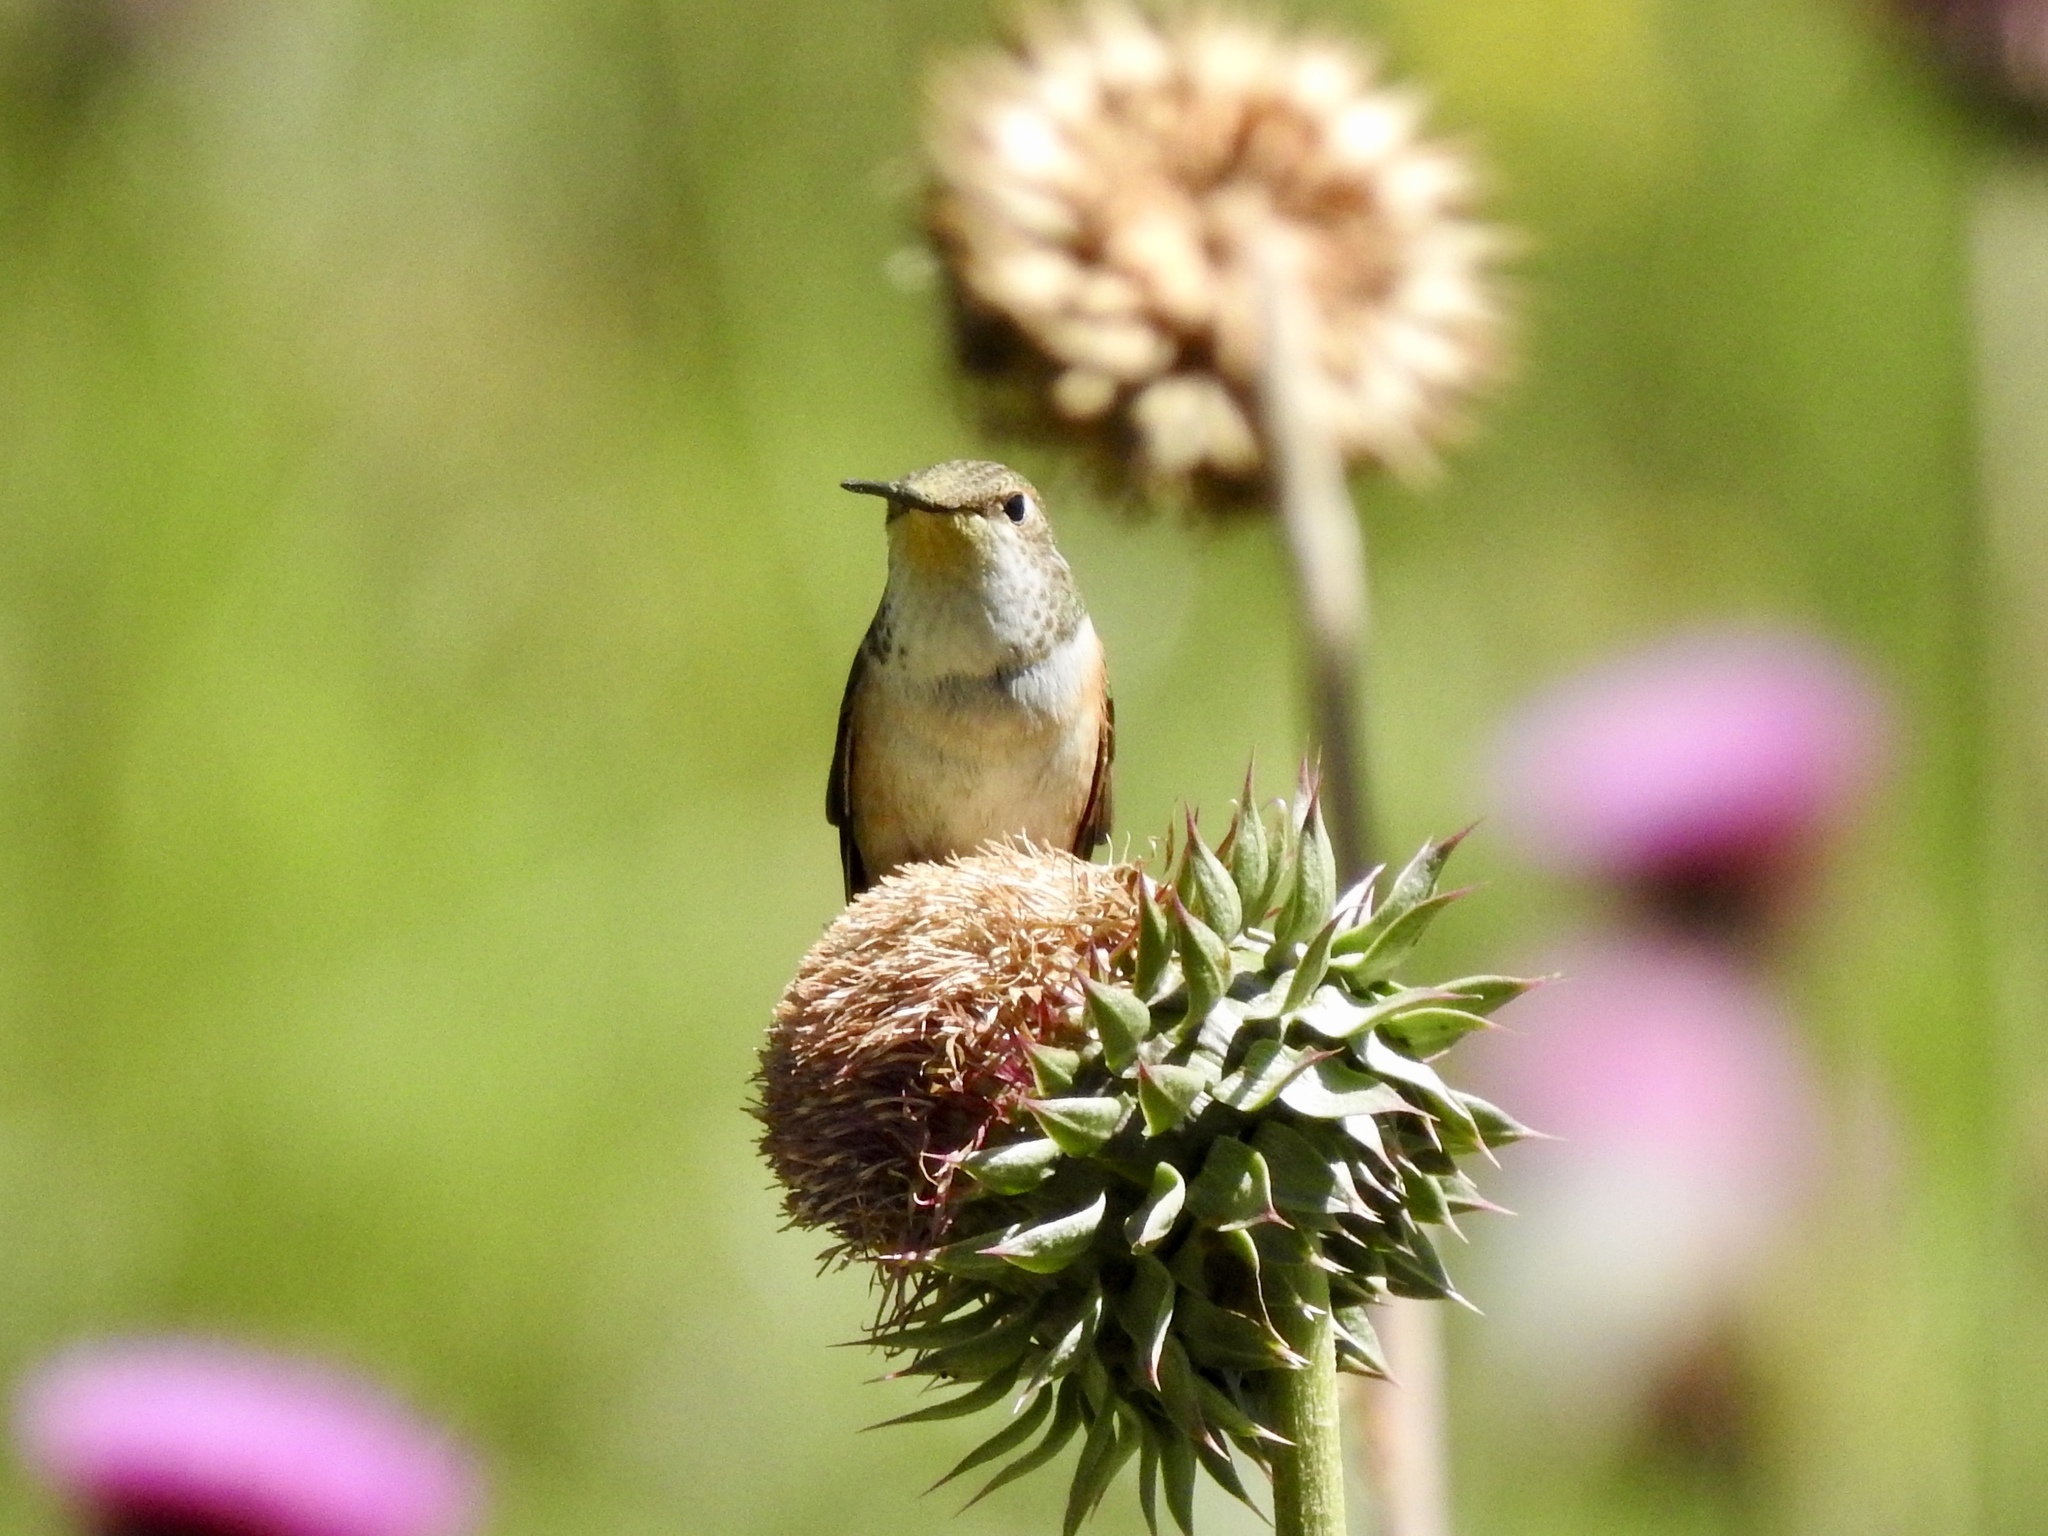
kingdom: Animalia
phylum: Chordata
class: Aves
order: Apodiformes
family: Trochilidae
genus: Selasphorus
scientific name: Selasphorus rufus
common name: Rufous hummingbird
